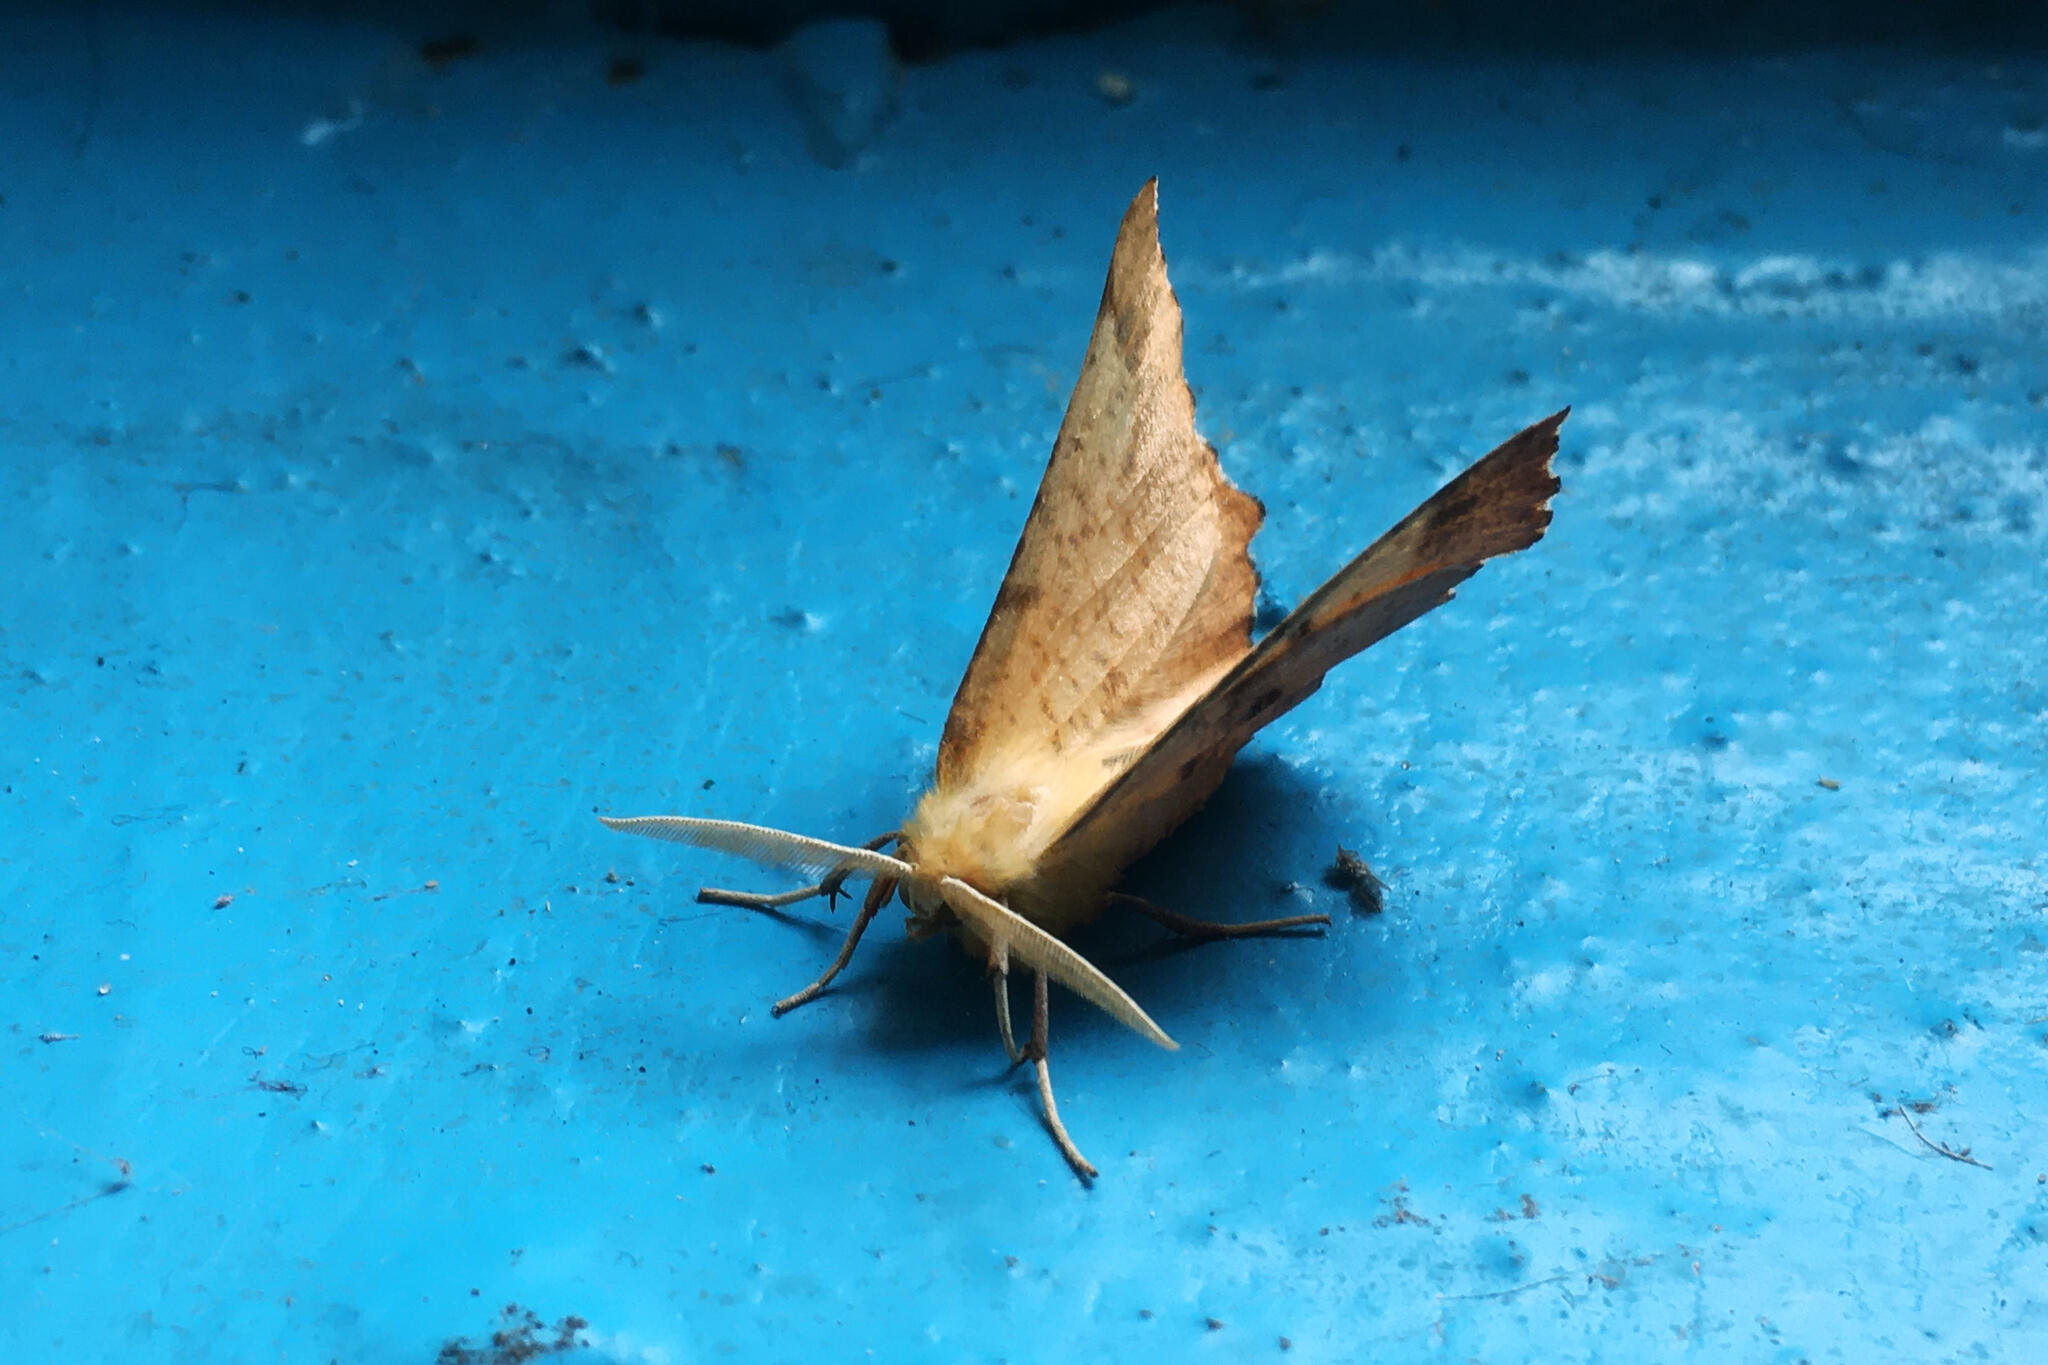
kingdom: Animalia
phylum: Arthropoda
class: Insecta
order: Lepidoptera
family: Geometridae
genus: Ennomos
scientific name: Ennomos autumnaria
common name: Large thorn
